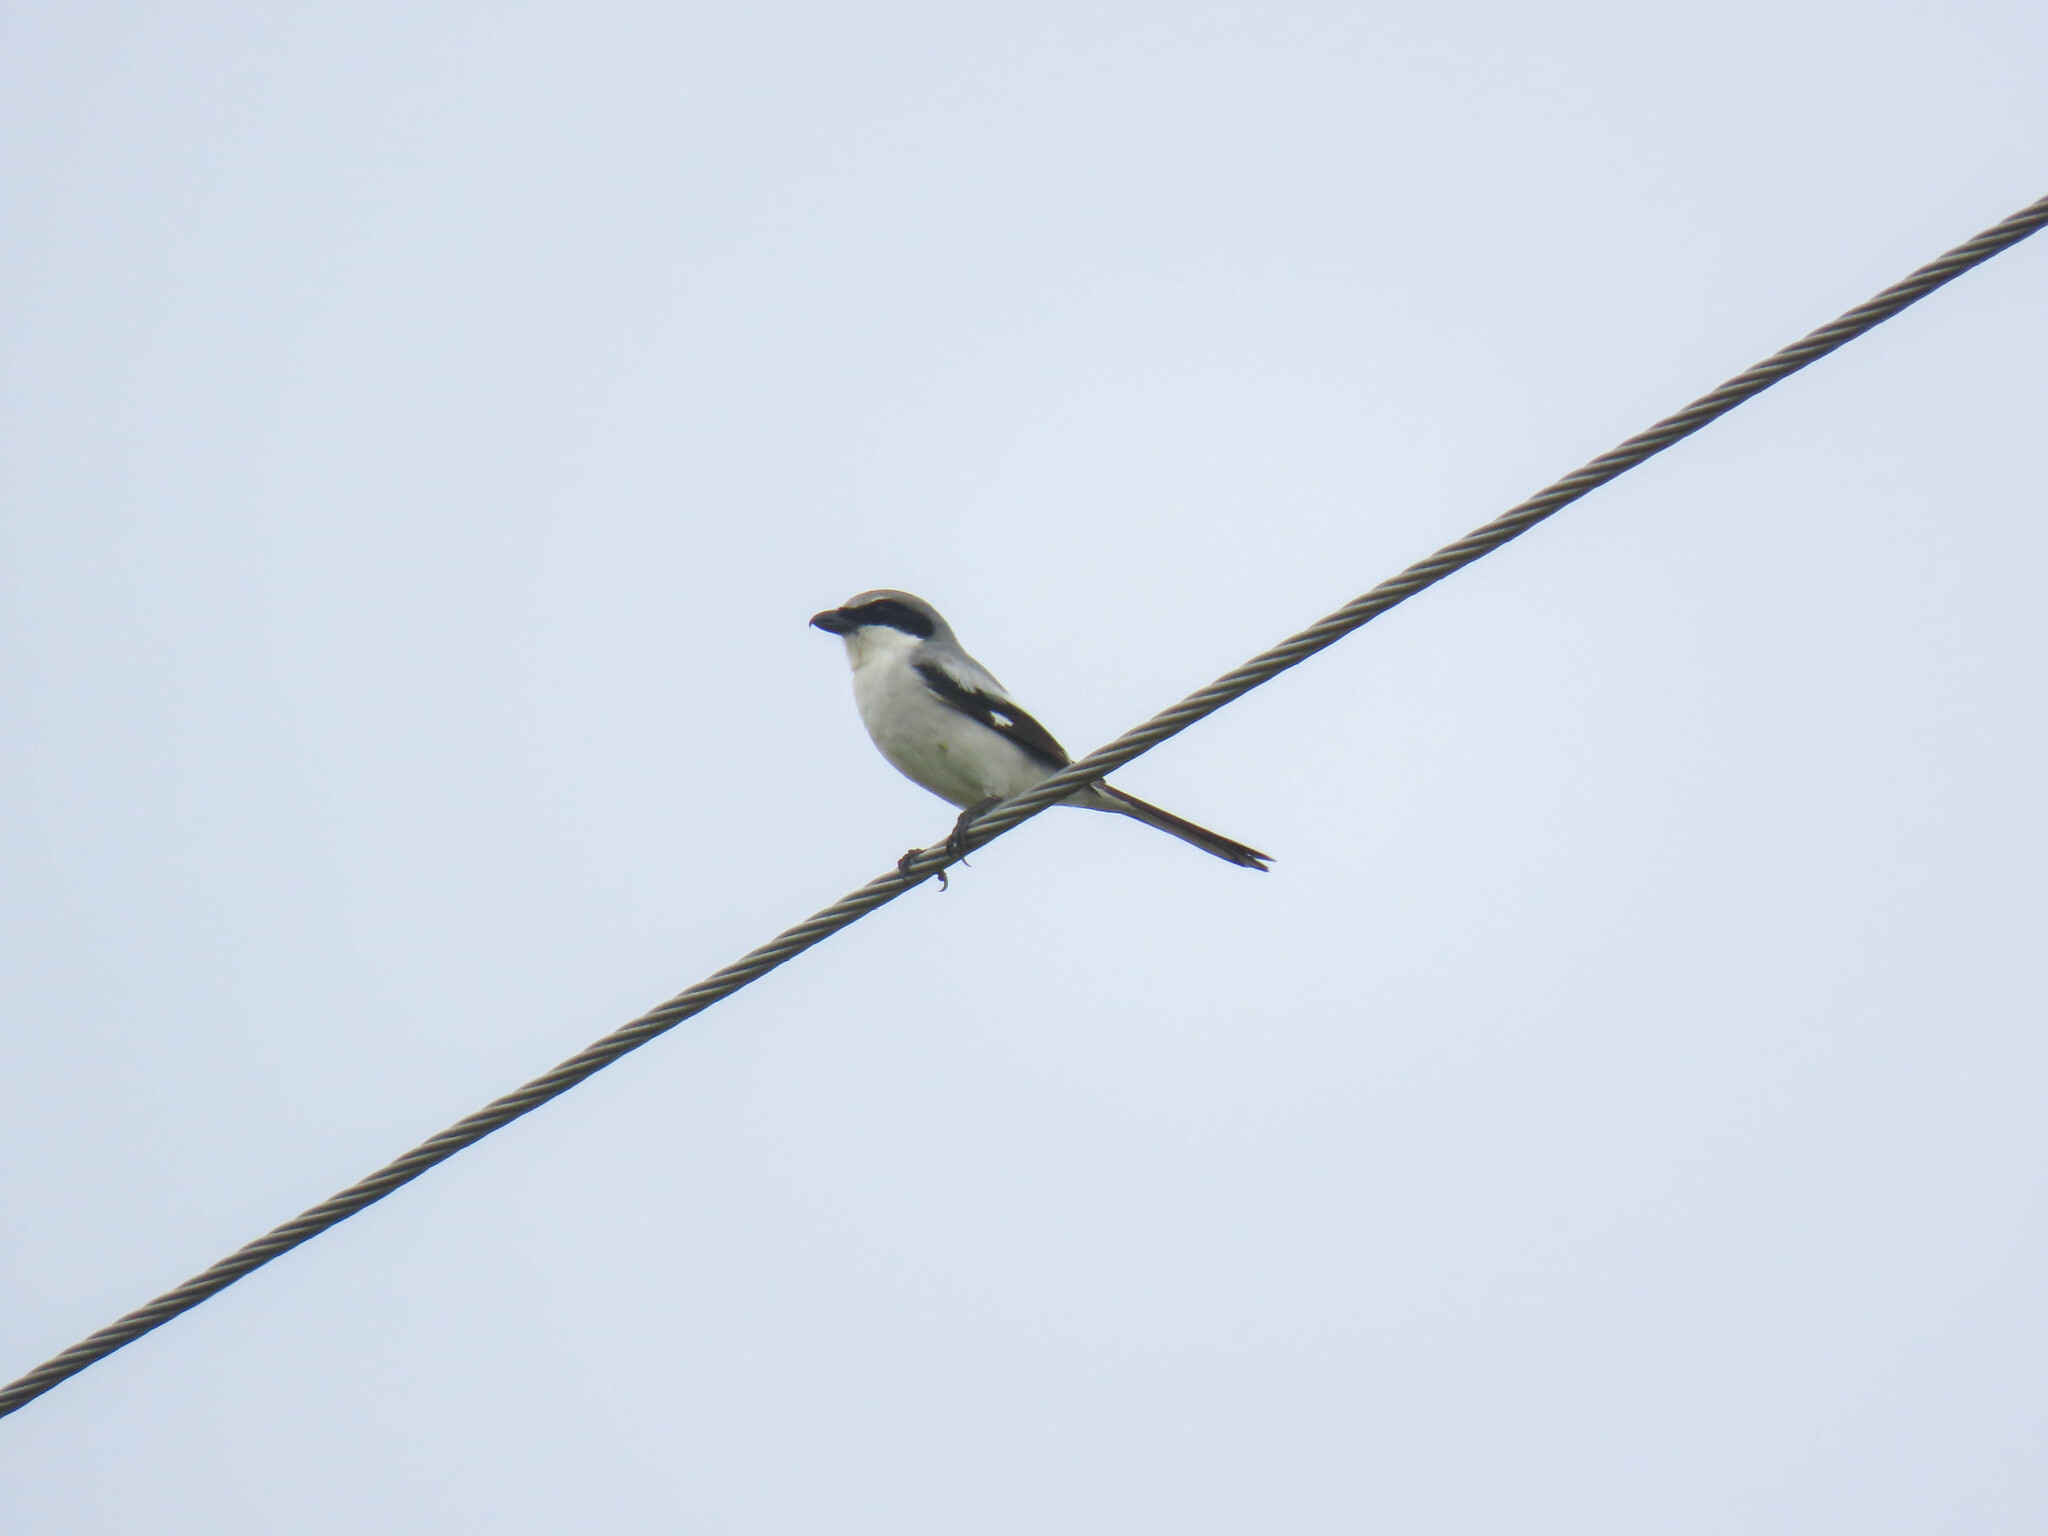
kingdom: Animalia
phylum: Chordata
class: Aves
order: Passeriformes
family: Laniidae
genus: Lanius
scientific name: Lanius ludovicianus
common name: Loggerhead shrike
